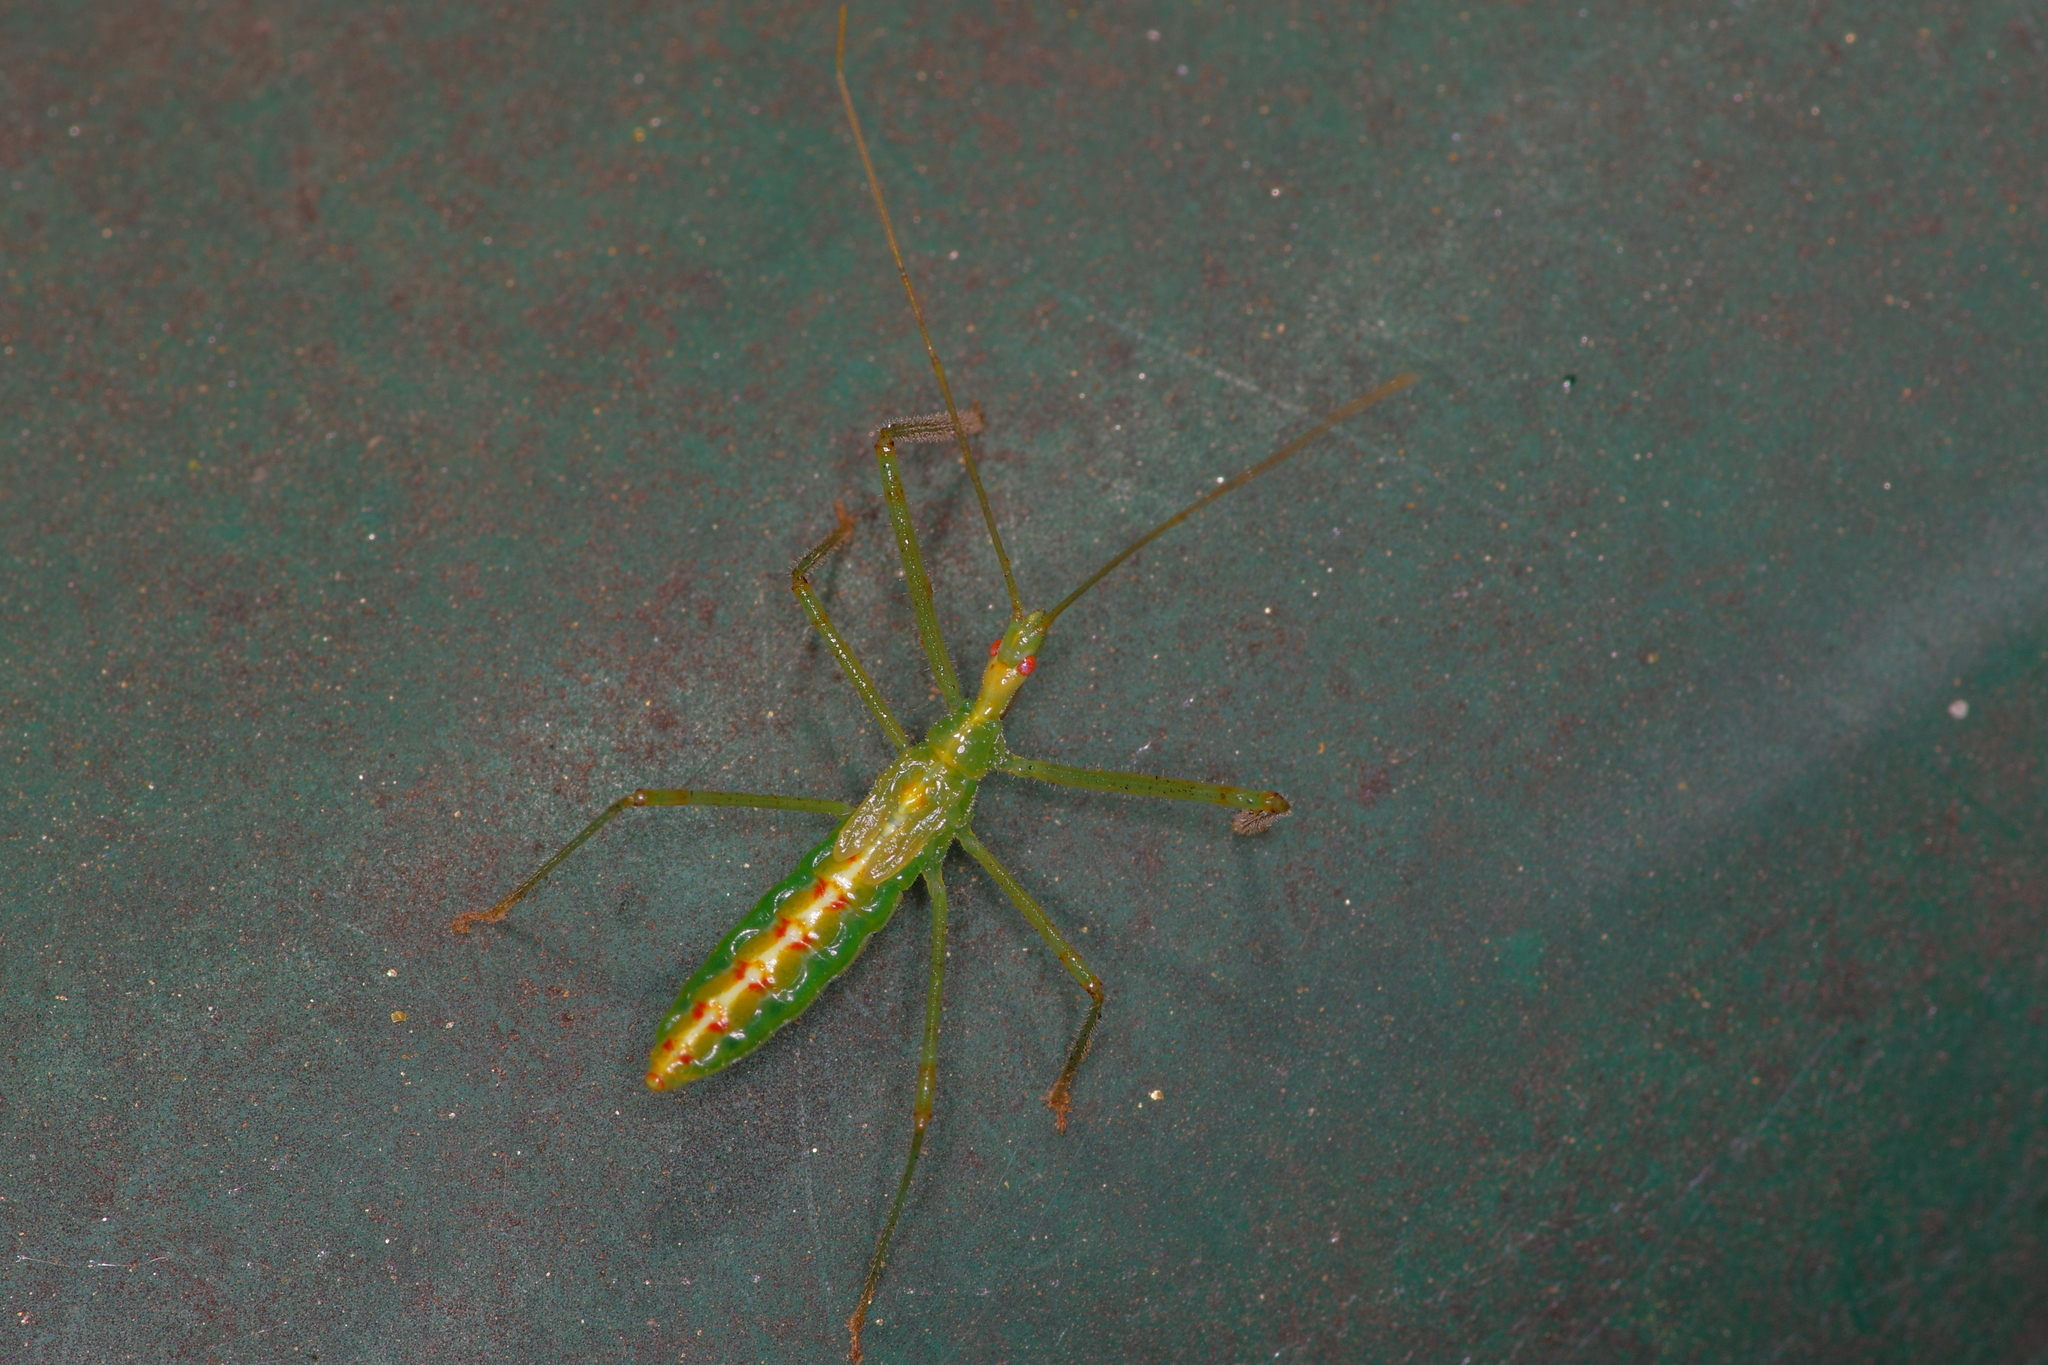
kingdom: Animalia
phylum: Arthropoda
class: Insecta
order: Hemiptera
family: Reduviidae
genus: Zelus
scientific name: Zelus luridus
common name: Pale green assassin bug
